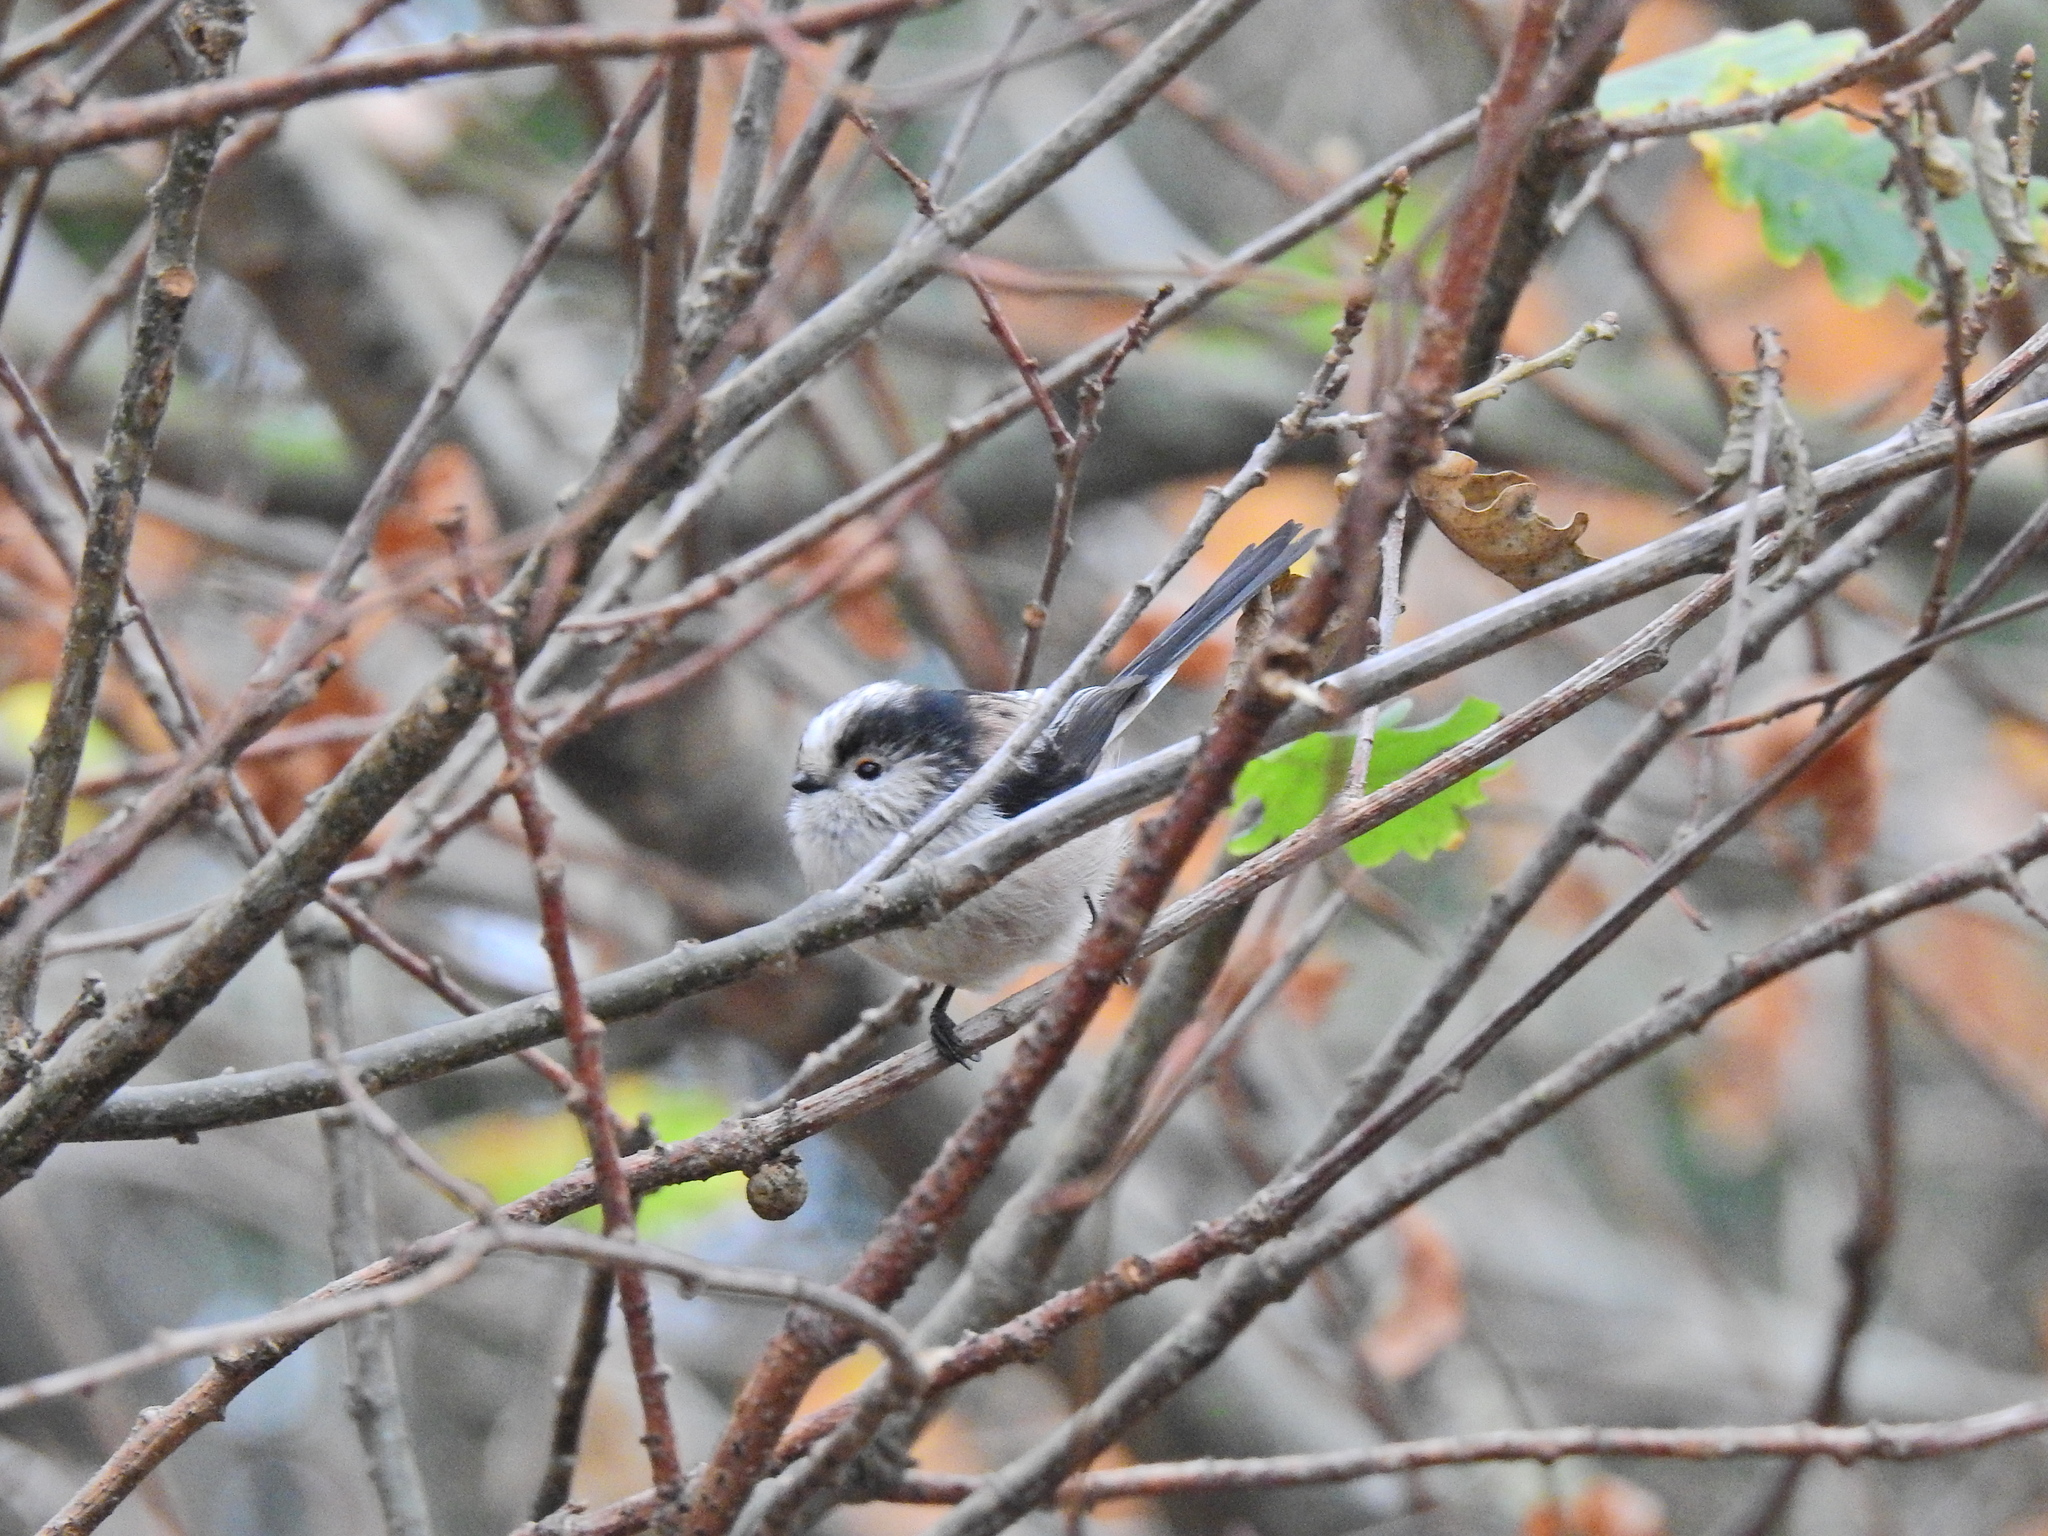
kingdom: Animalia
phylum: Chordata
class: Aves
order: Passeriformes
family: Aegithalidae
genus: Aegithalos
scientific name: Aegithalos caudatus
